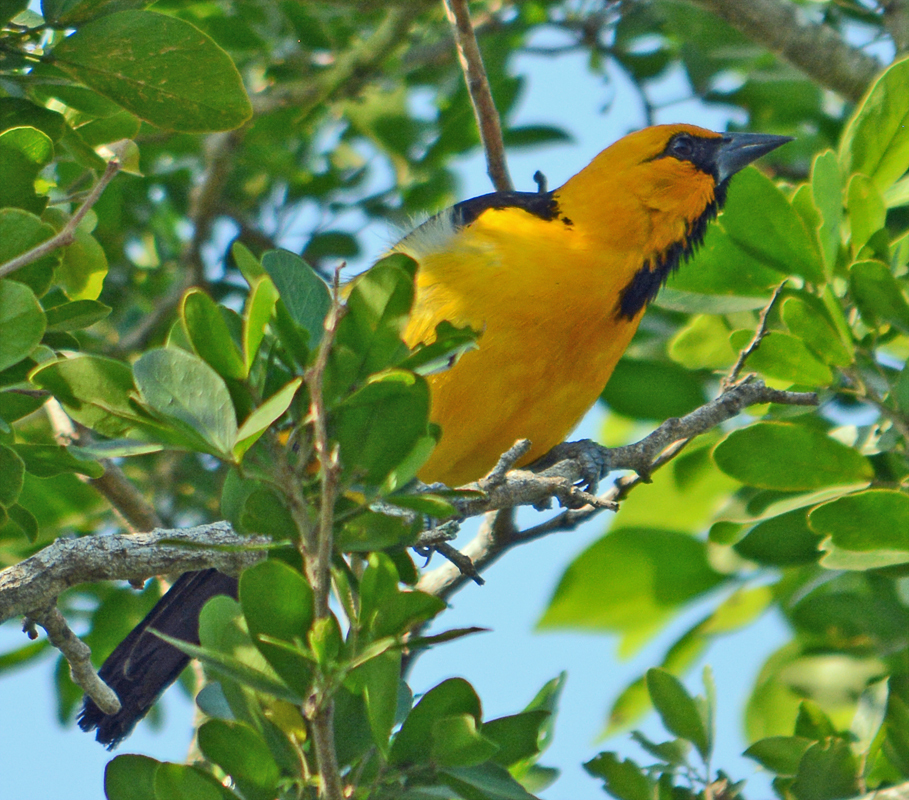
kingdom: Animalia
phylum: Chordata
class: Aves
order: Passeriformes
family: Icteridae
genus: Icterus
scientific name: Icterus gularis
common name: Altamira oriole
